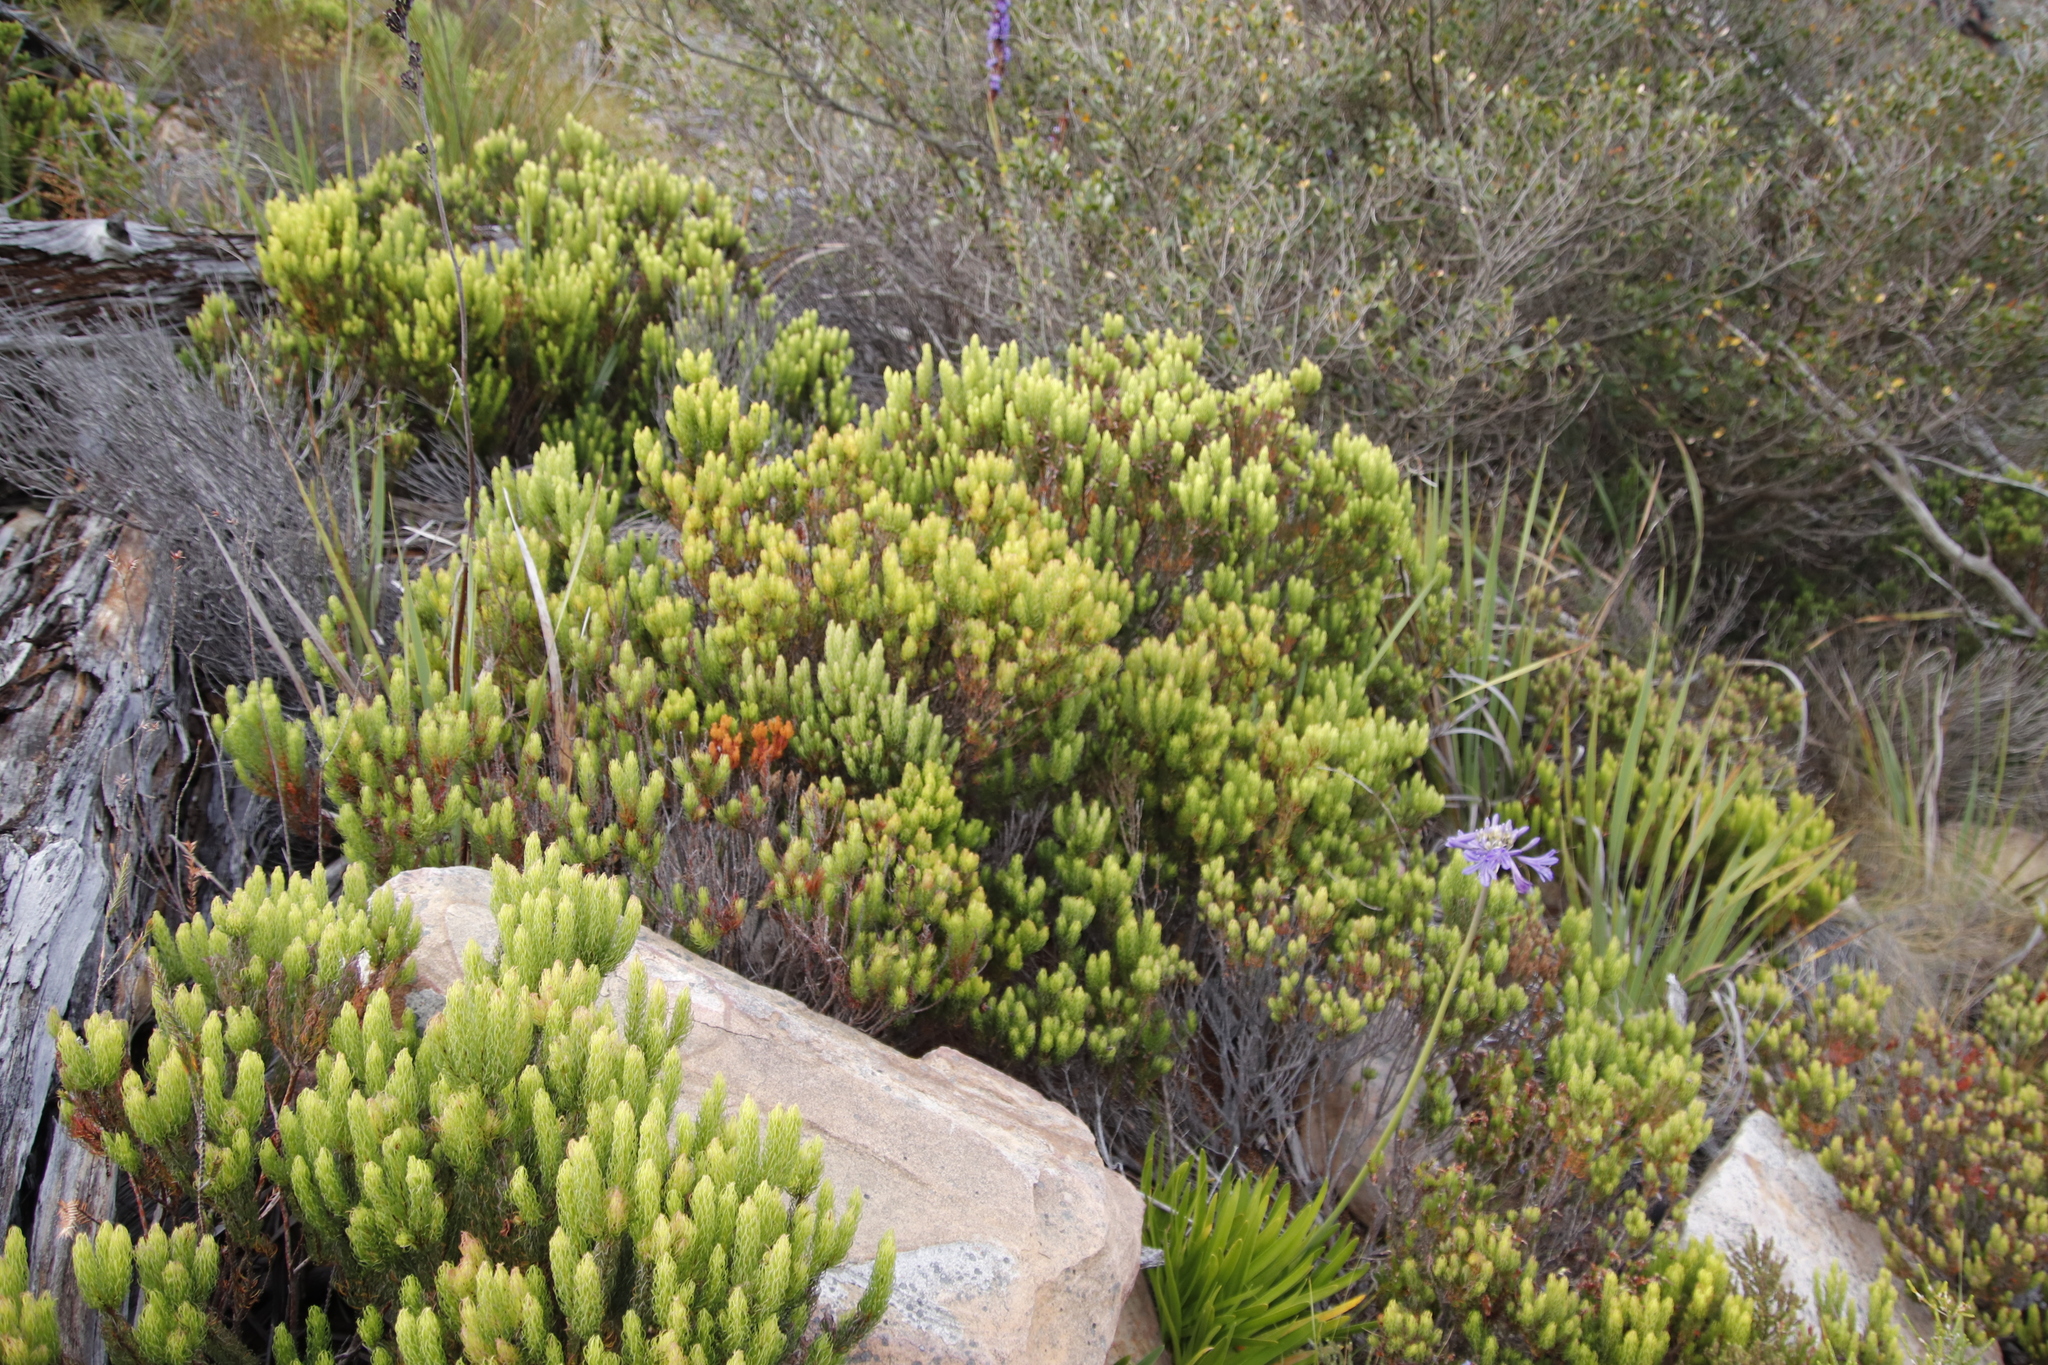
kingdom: Plantae
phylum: Tracheophyta
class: Magnoliopsida
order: Ericales
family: Ericaceae
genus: Erica
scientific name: Erica plukenetii
